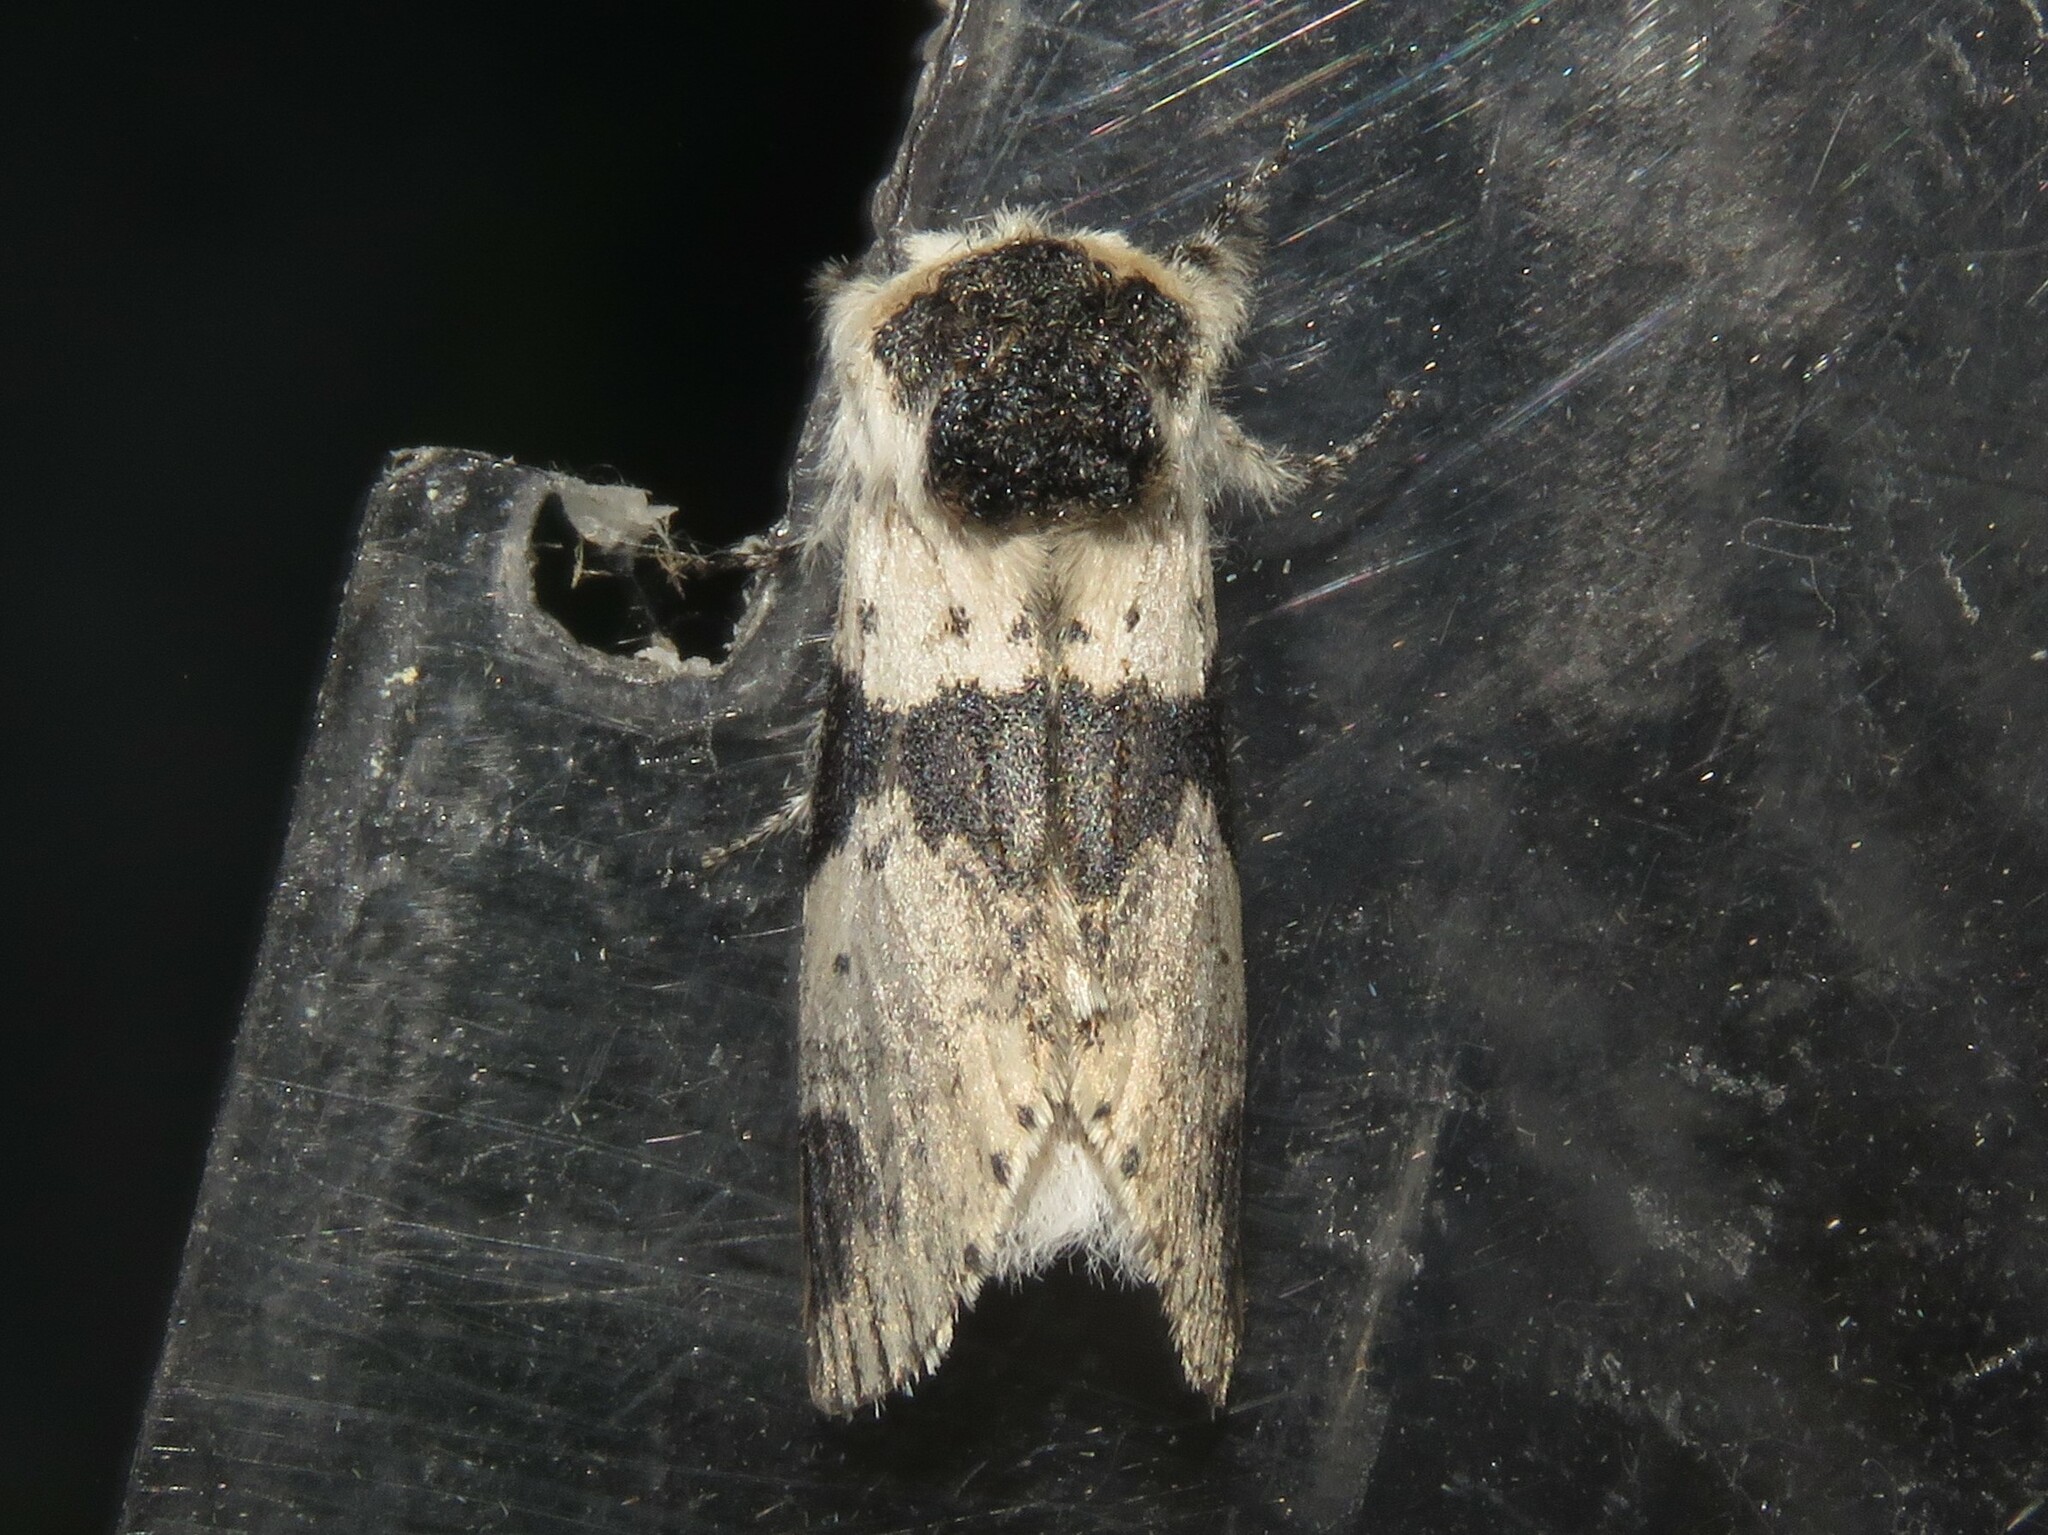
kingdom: Animalia
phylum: Arthropoda
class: Insecta
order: Lepidoptera
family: Notodontidae
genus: Furcula
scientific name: Furcula modesta
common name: Modest furcula moth
